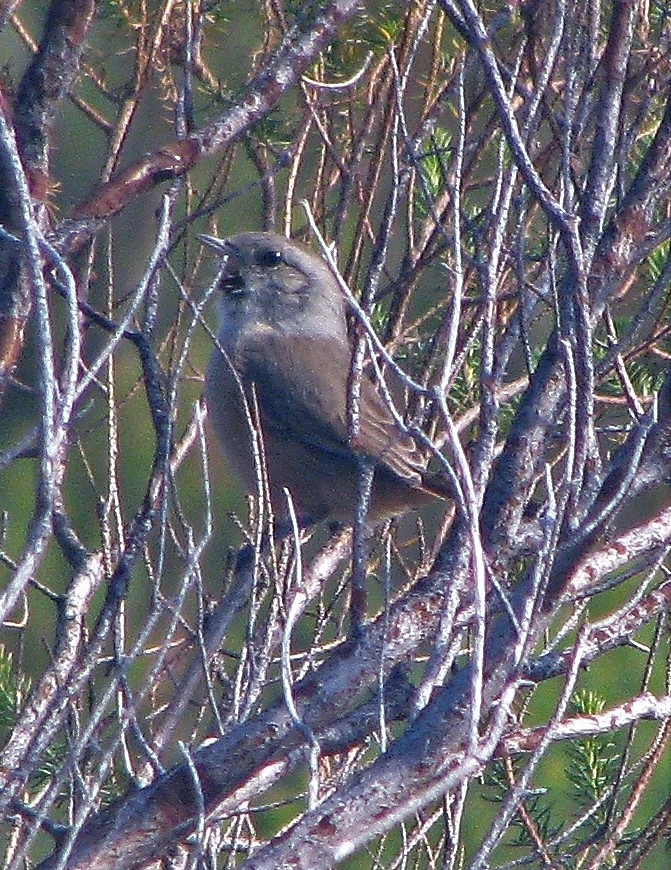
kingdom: Animalia
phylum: Chordata
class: Aves
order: Passeriformes
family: Furnariidae
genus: Asthenes
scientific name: Asthenes baeri
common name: Short-billed canastero
